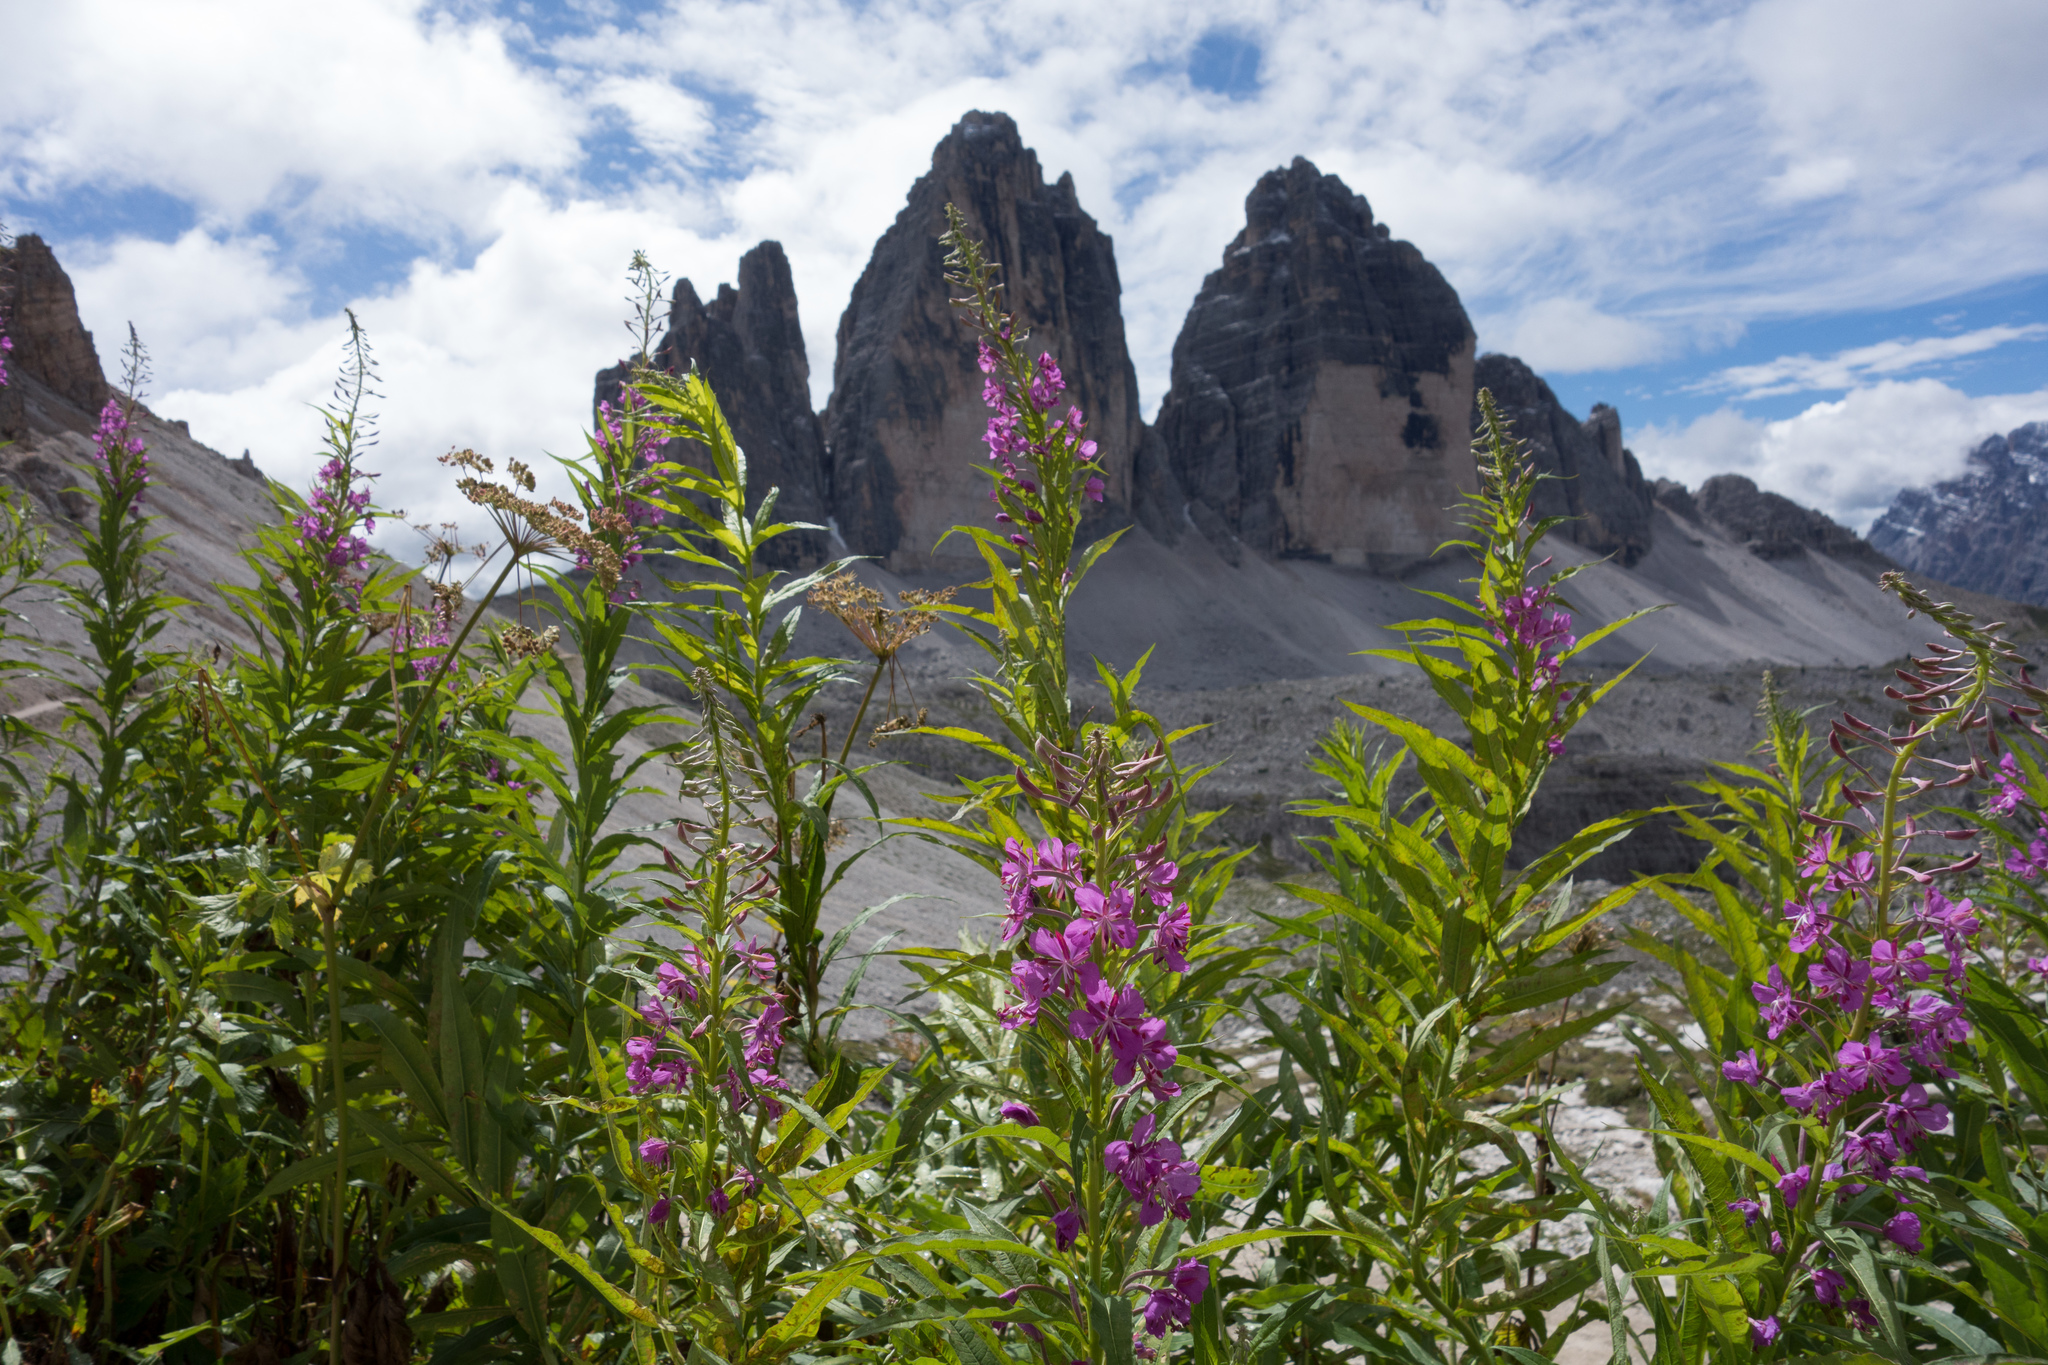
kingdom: Plantae
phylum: Tracheophyta
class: Magnoliopsida
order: Myrtales
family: Onagraceae
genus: Chamaenerion
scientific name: Chamaenerion angustifolium
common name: Fireweed
